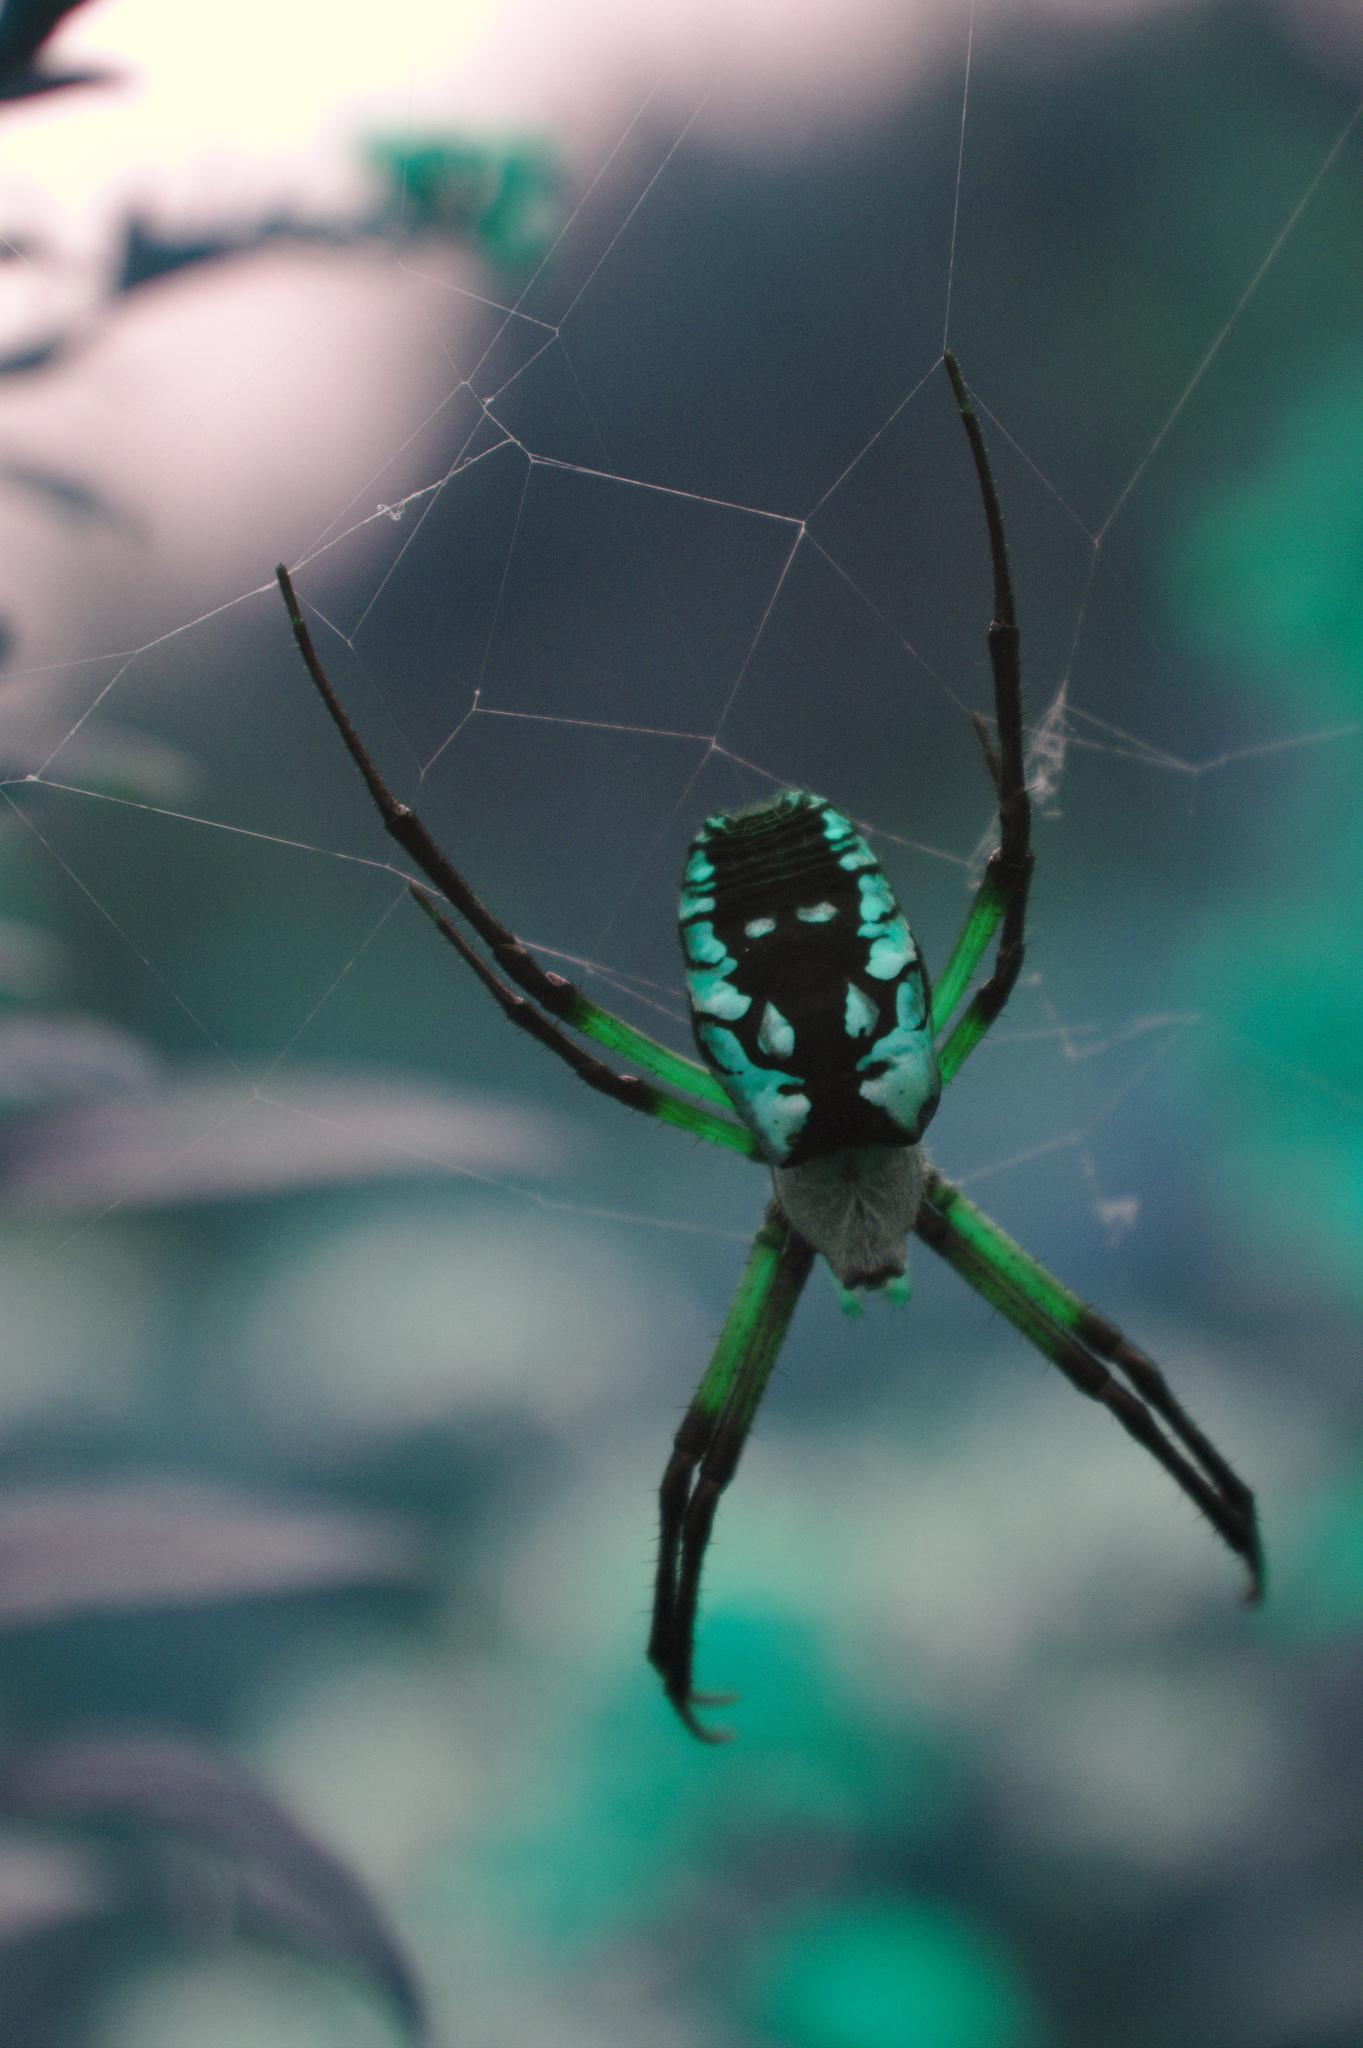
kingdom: Animalia
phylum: Arthropoda
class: Arachnida
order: Araneae
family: Araneidae
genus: Argiope
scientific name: Argiope aurantia
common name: Orb weavers
